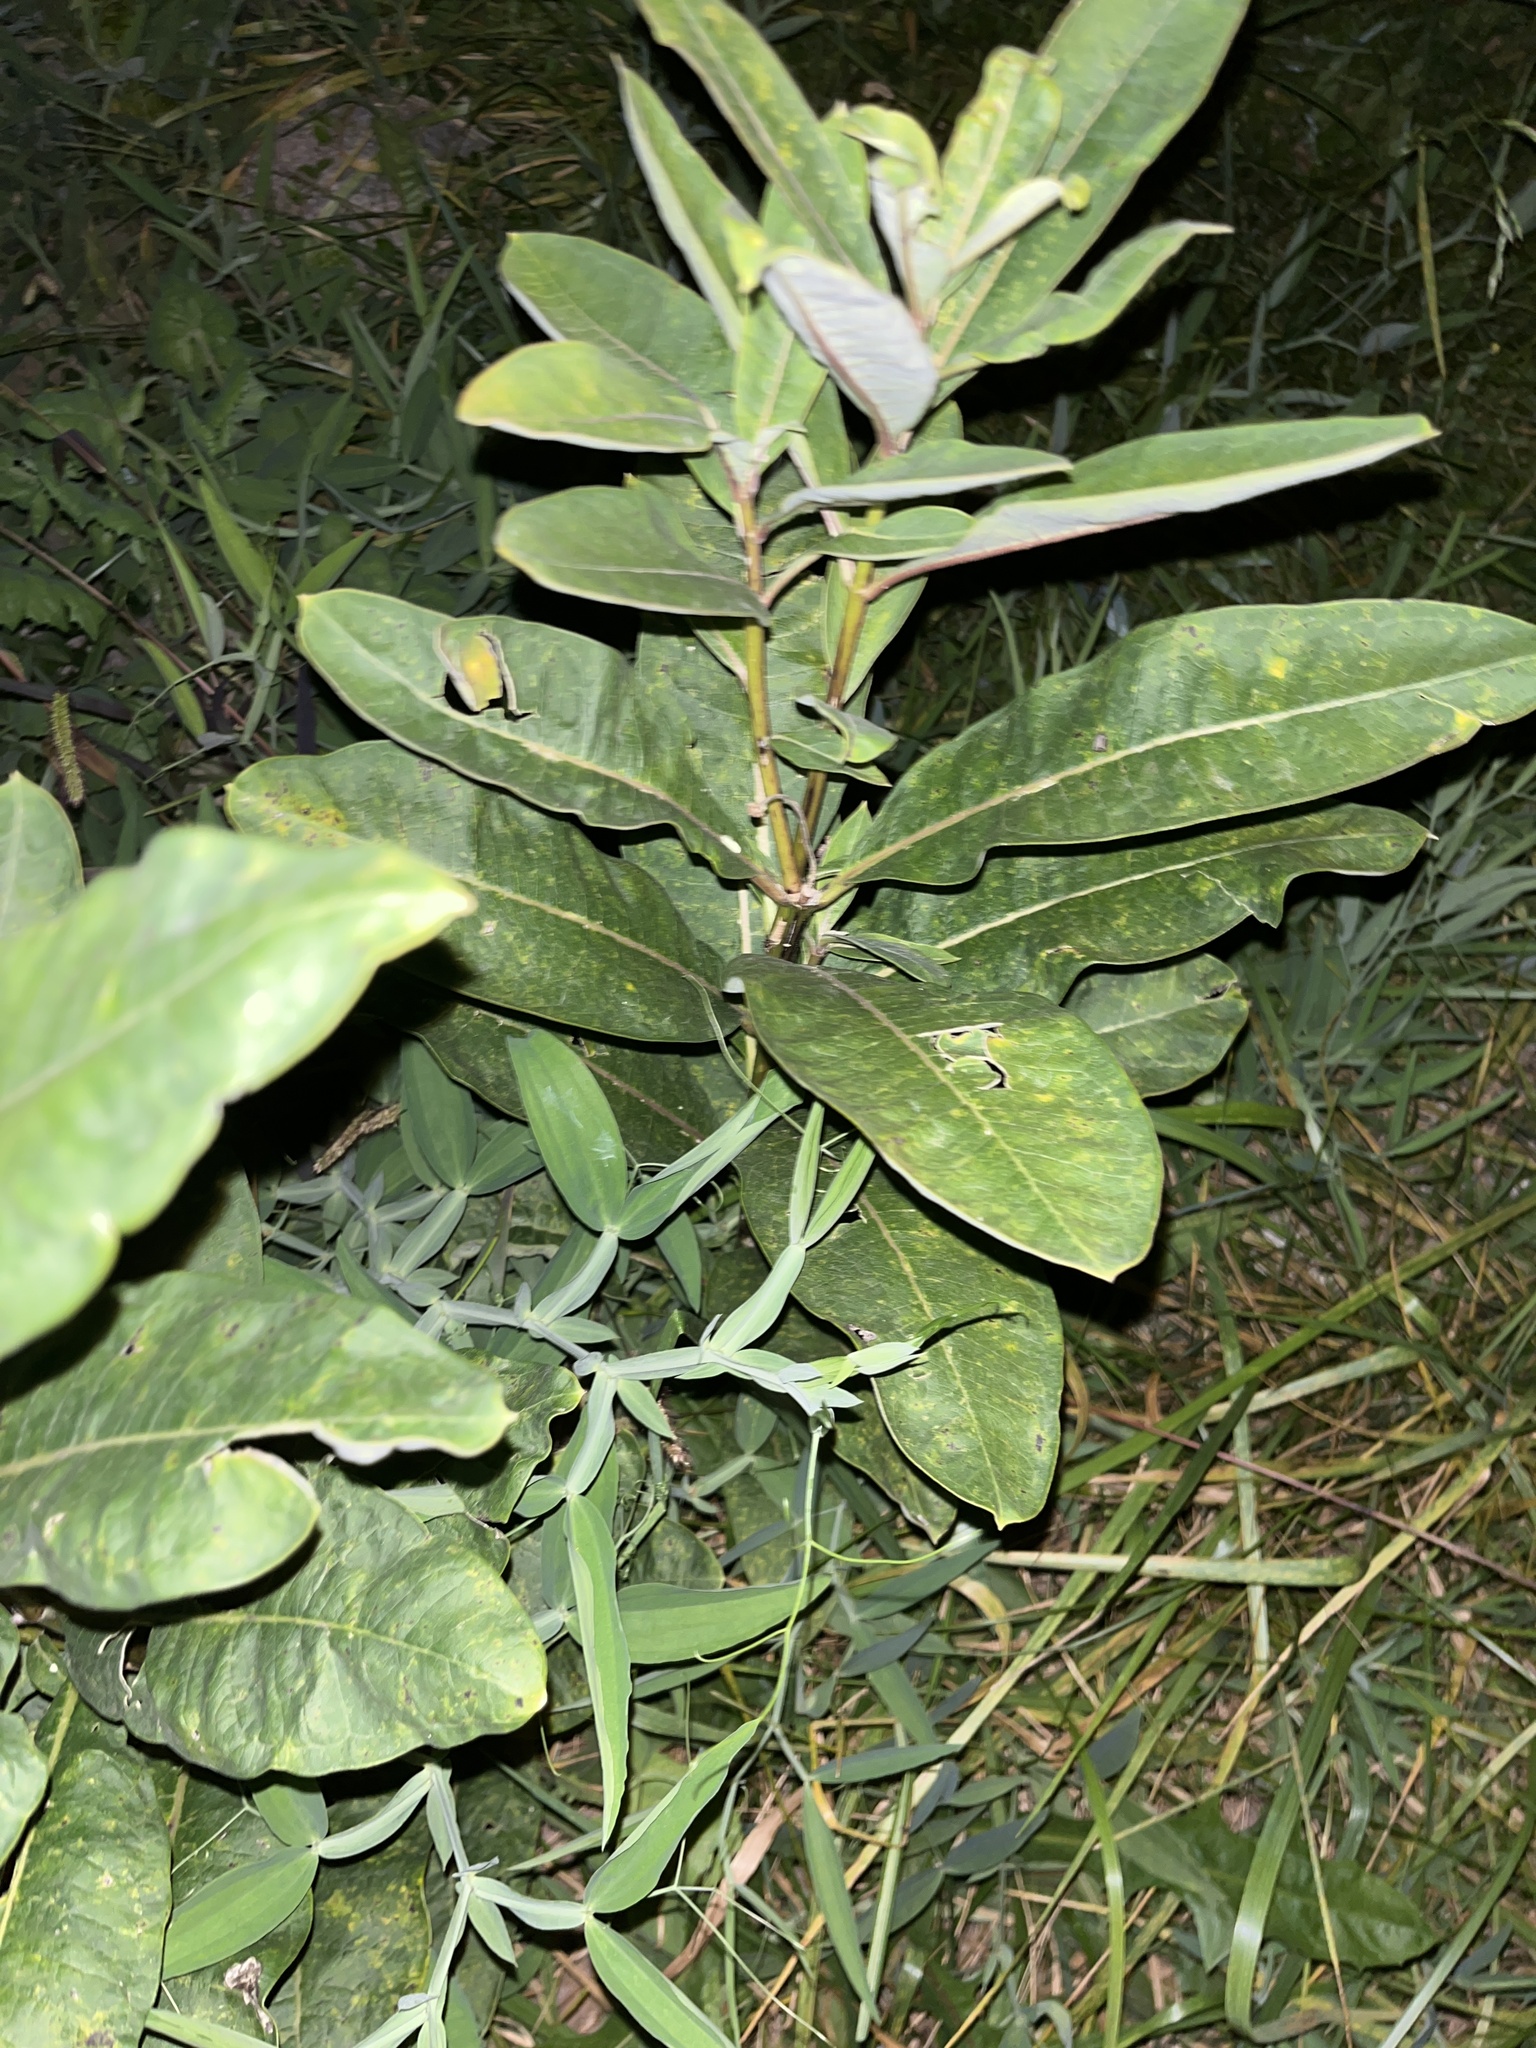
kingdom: Plantae
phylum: Tracheophyta
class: Magnoliopsida
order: Gentianales
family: Apocynaceae
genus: Asclepias
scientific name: Asclepias syriaca
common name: Common milkweed
